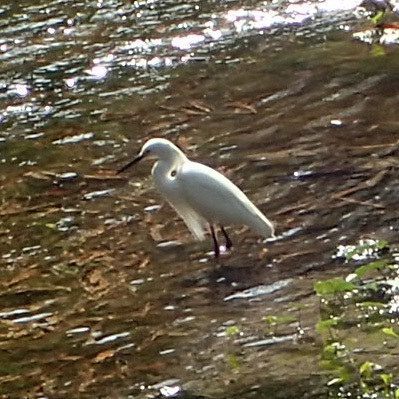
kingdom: Animalia
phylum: Chordata
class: Aves
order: Pelecaniformes
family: Ardeidae
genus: Egretta
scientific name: Egretta thula
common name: Snowy egret
